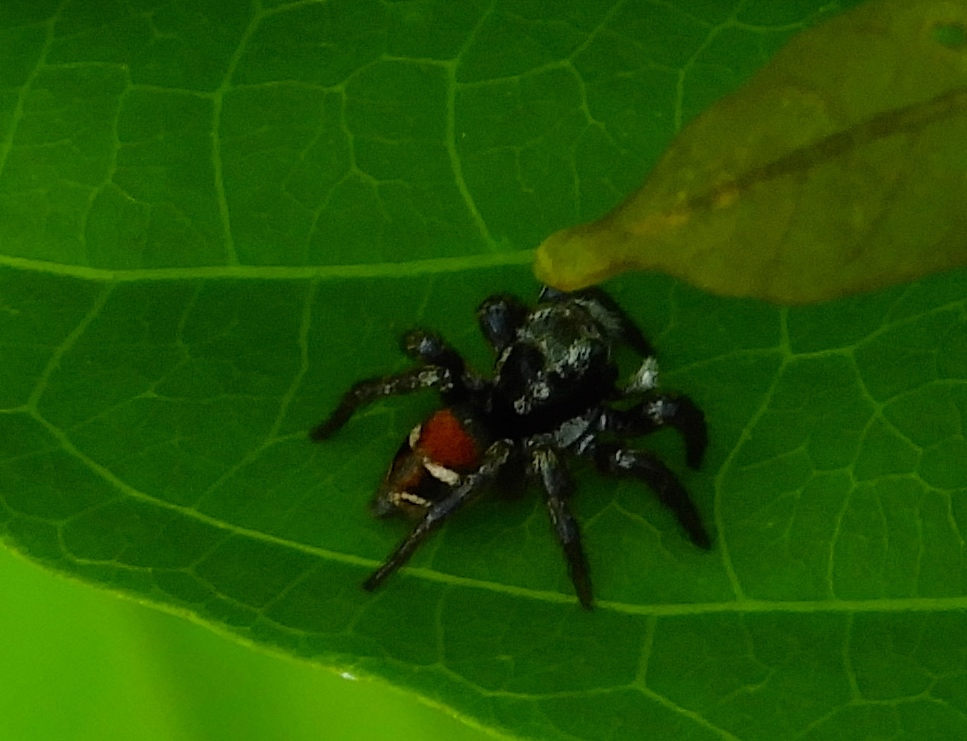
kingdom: Animalia
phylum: Arthropoda
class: Arachnida
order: Araneae
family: Salticidae
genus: Corythalia
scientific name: Corythalia
